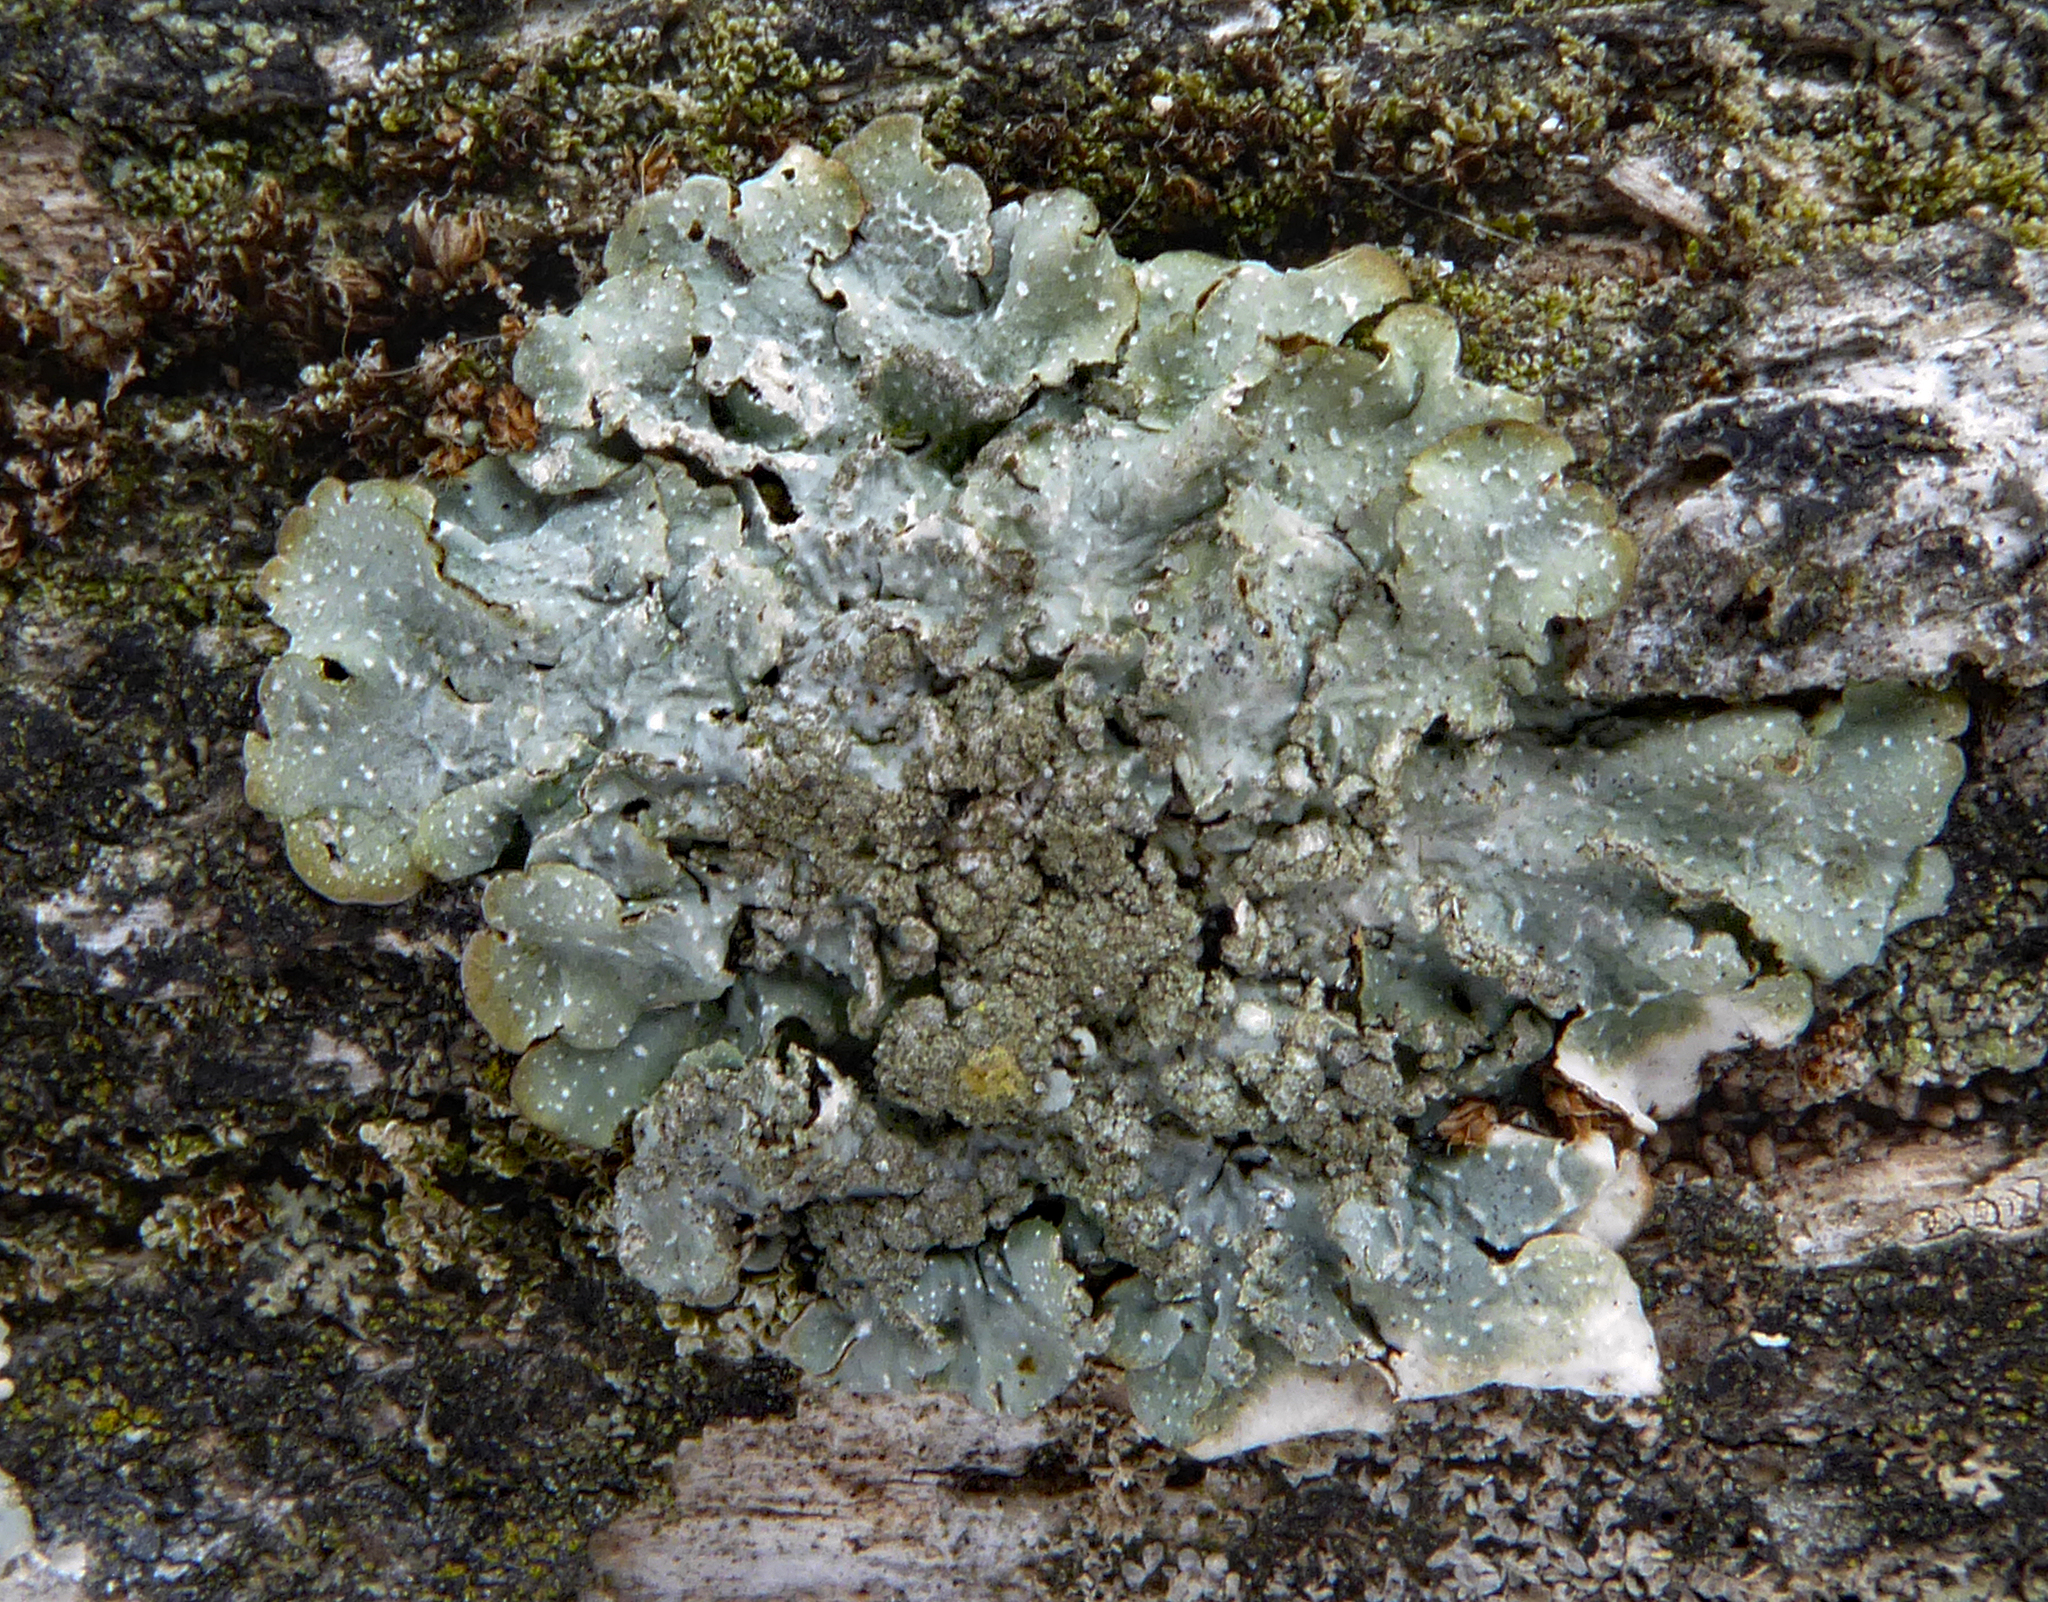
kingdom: Fungi
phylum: Ascomycota
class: Lecanoromycetes
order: Lecanorales
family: Parmeliaceae
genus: Punctelia
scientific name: Punctelia subrudecta
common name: Powdered speckled shield lichen
